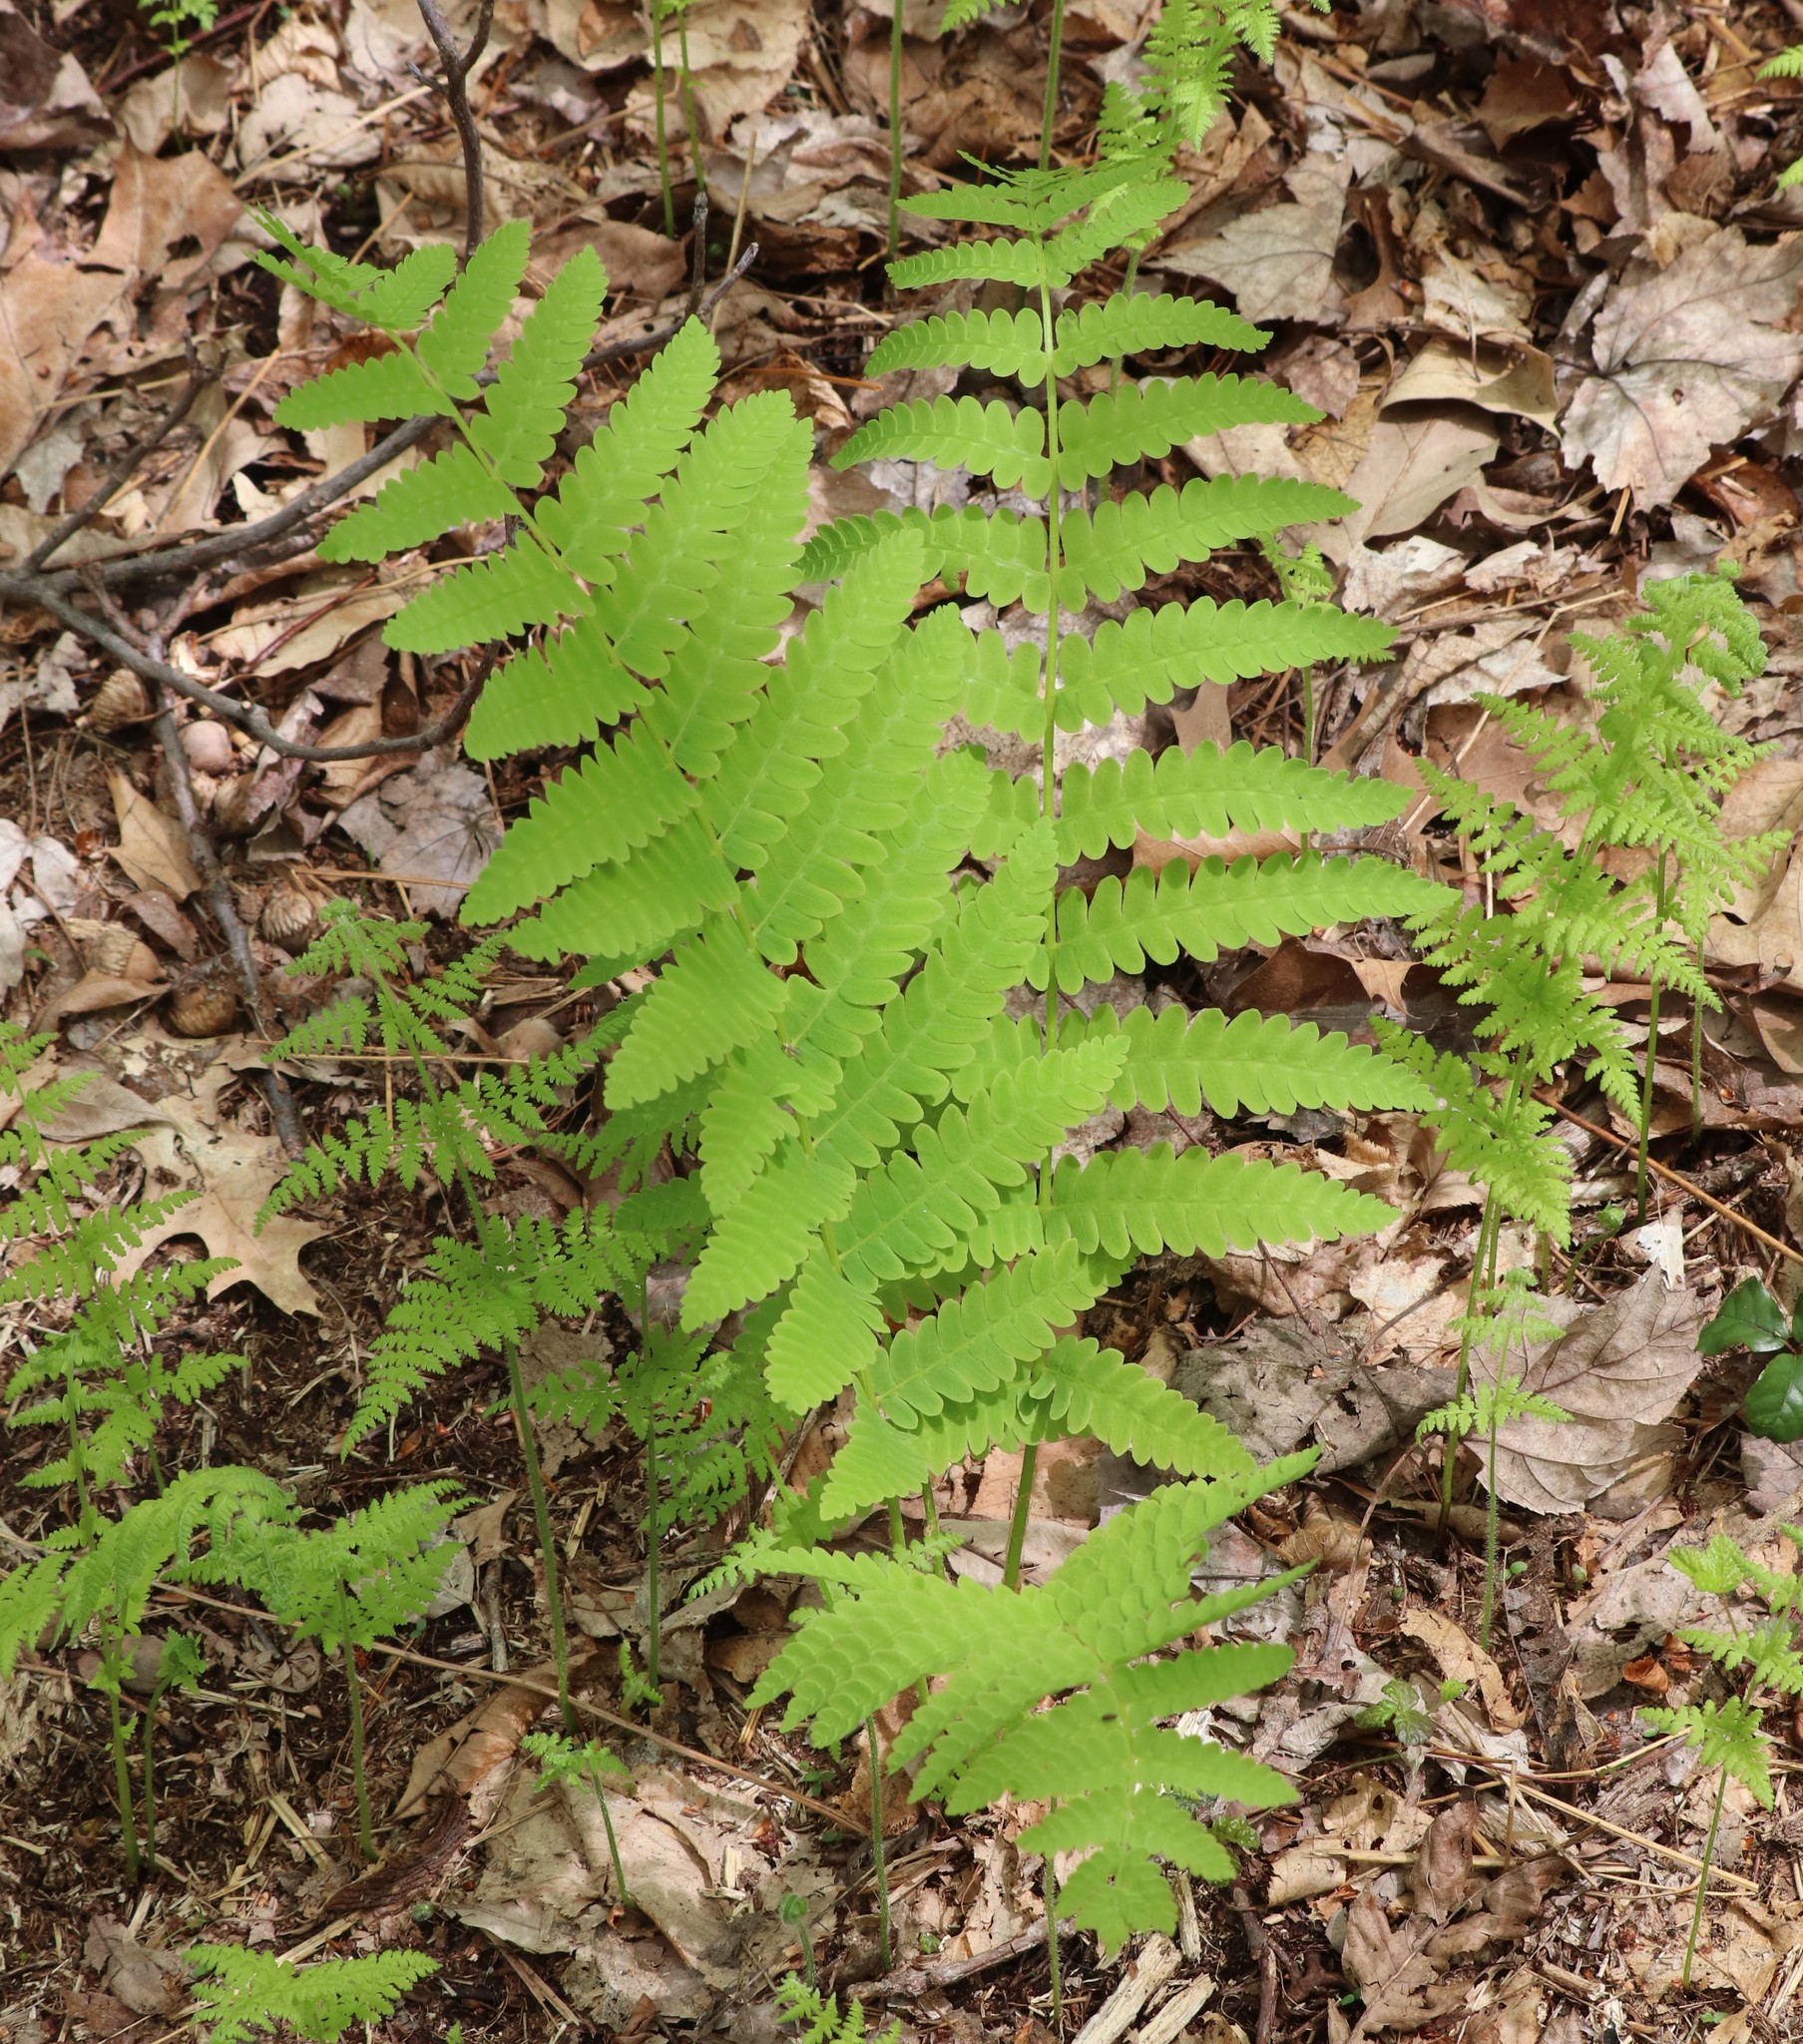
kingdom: Plantae
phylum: Tracheophyta
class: Polypodiopsida
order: Osmundales
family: Osmundaceae
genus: Claytosmunda
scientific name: Claytosmunda claytoniana
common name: Clayton's fern
